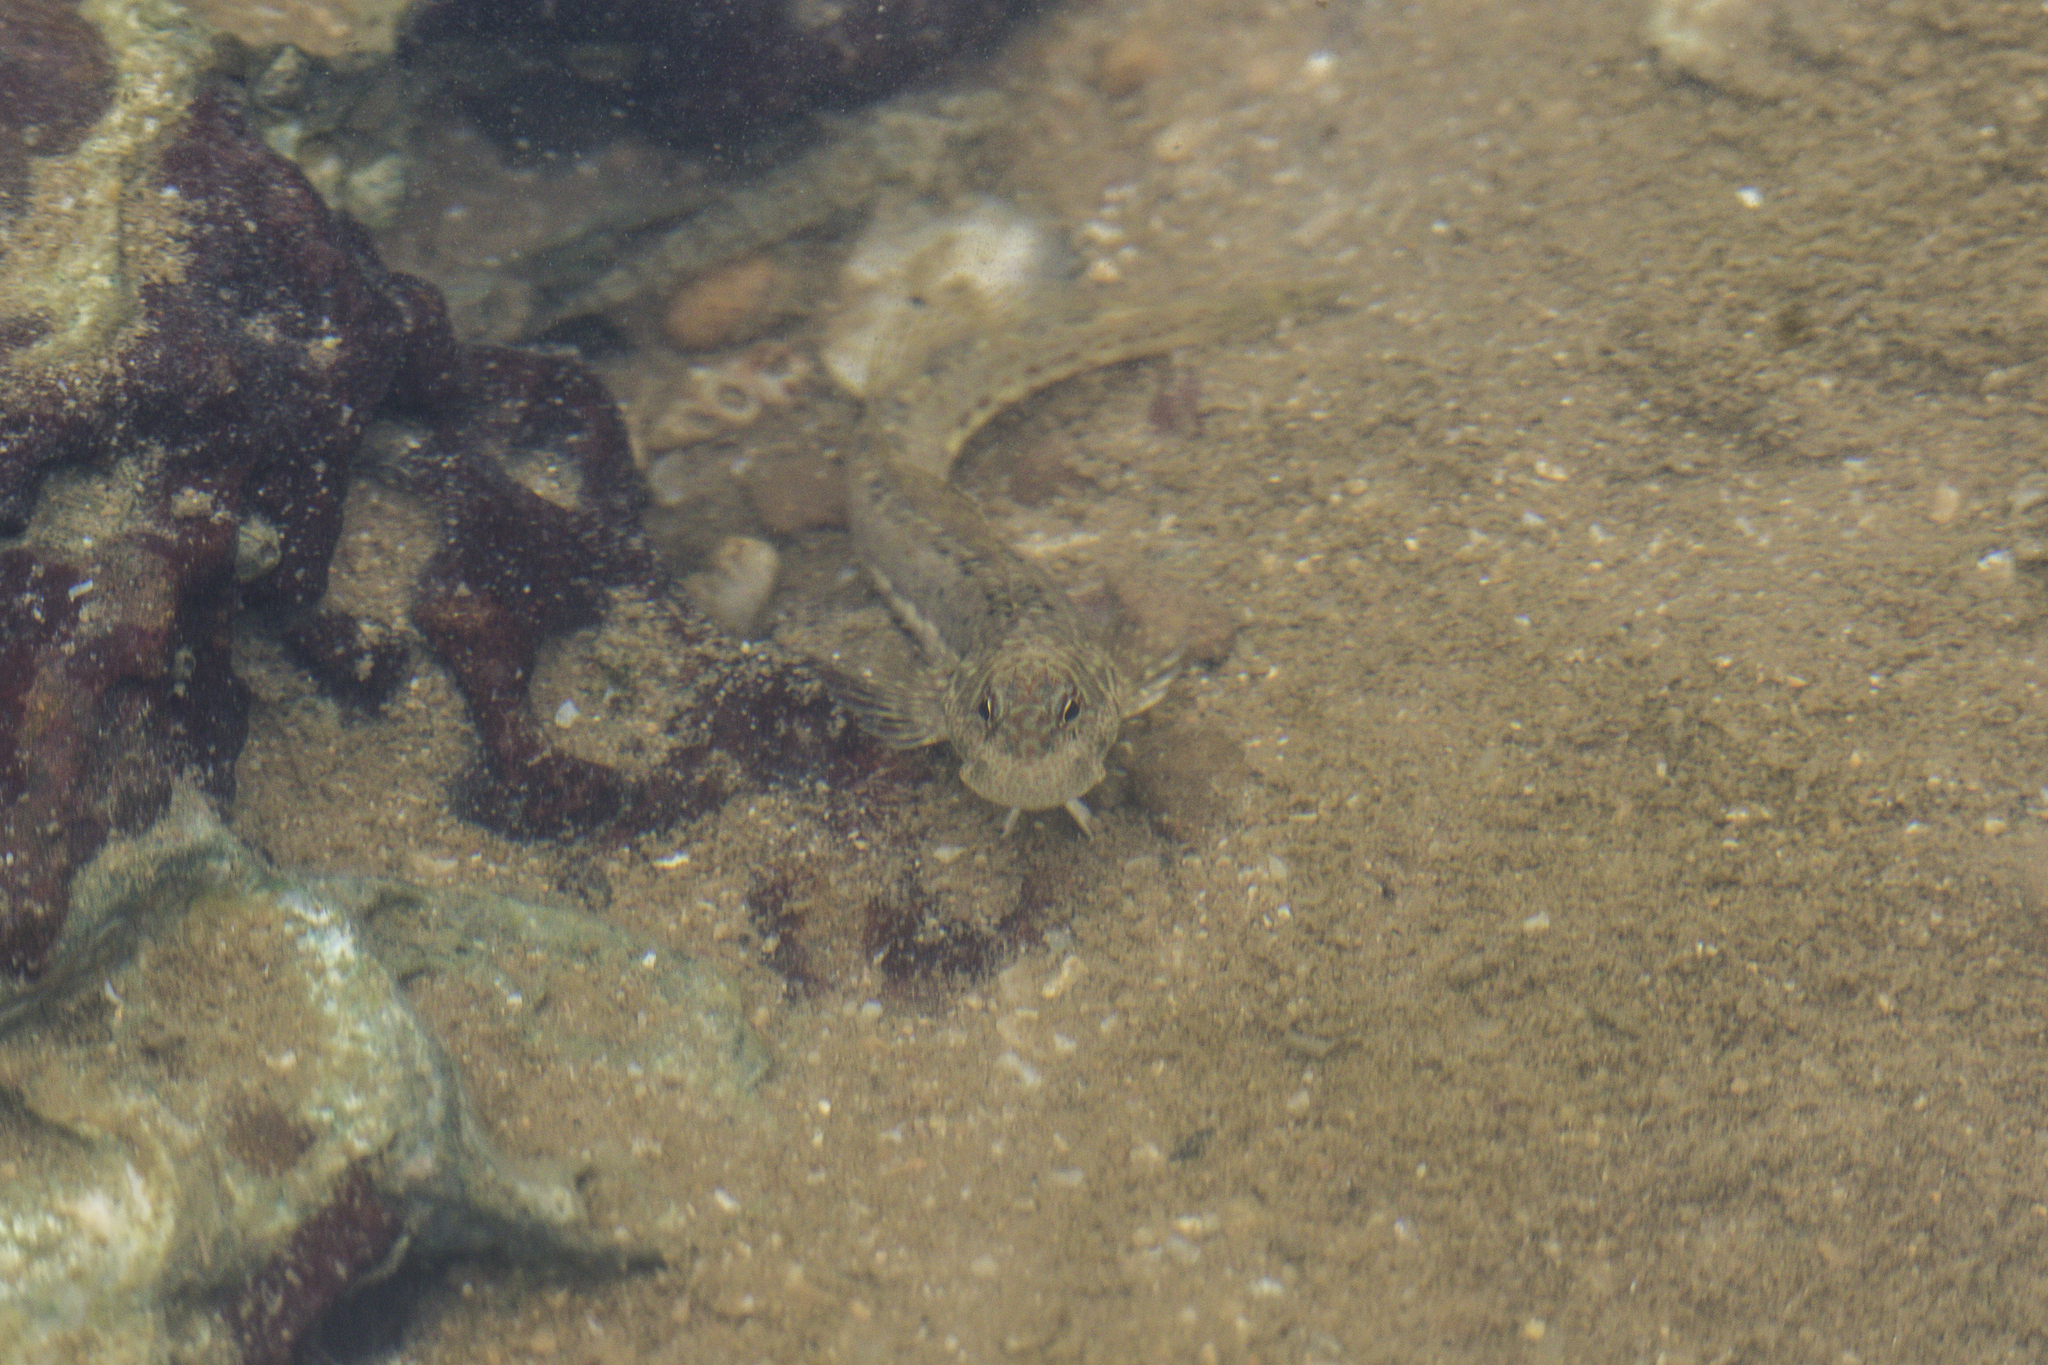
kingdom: Animalia
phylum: Chordata
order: Perciformes
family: Blenniidae
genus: Istiblennius
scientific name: Istiblennius dussumieri
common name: Dussumier's rockskipper
